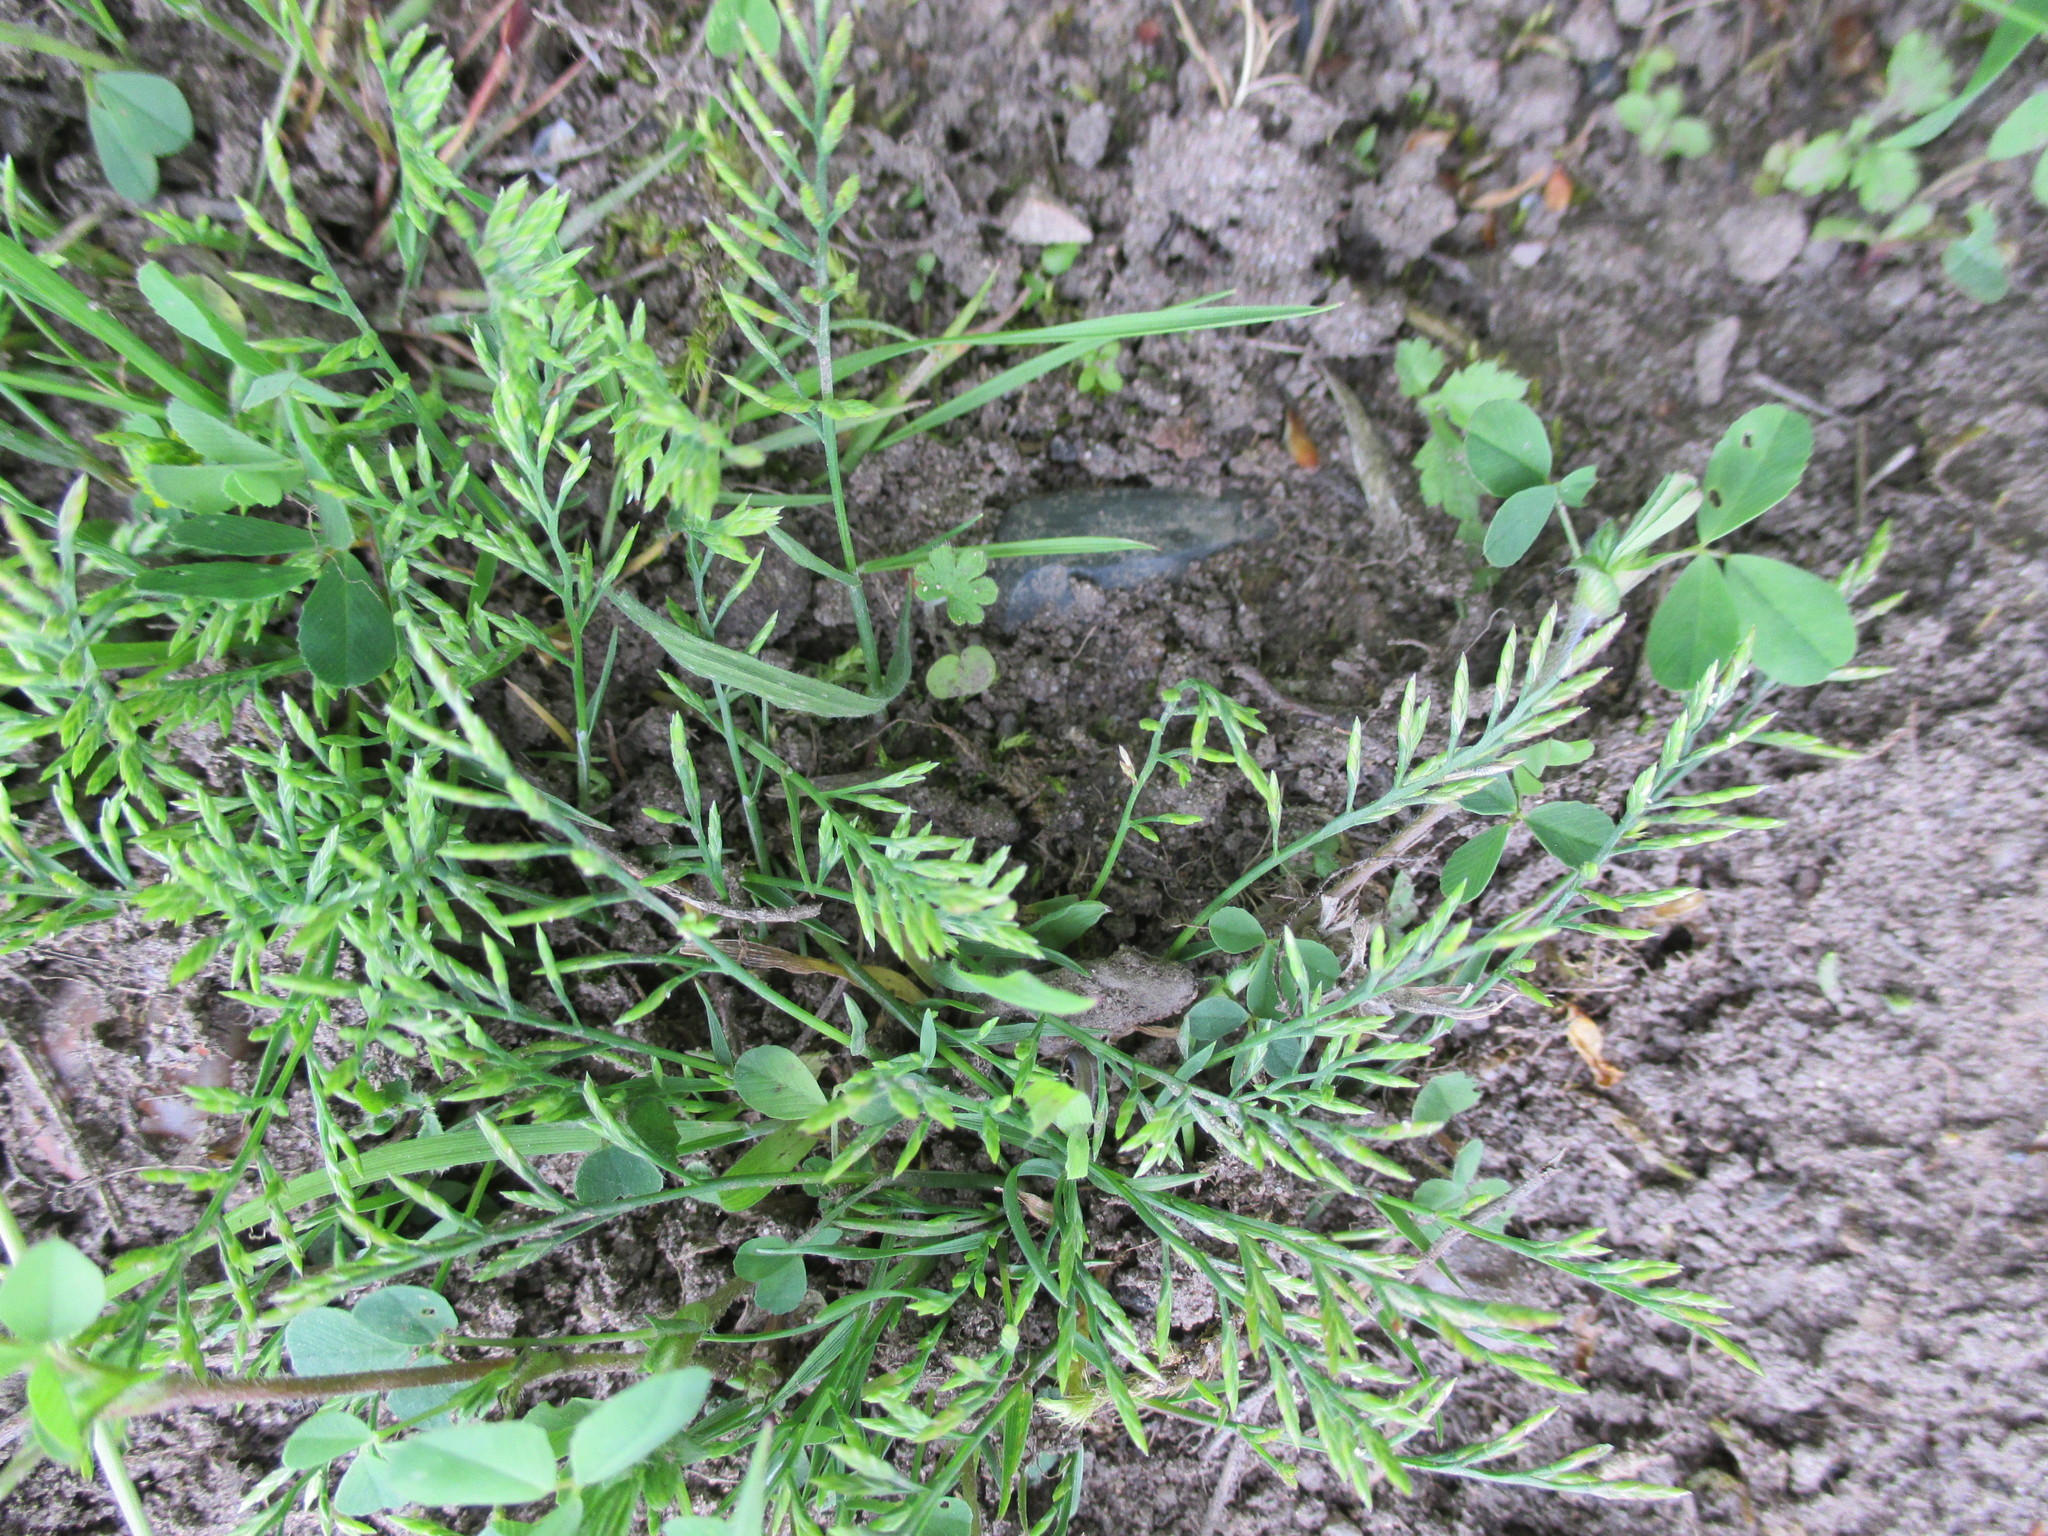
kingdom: Plantae
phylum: Tracheophyta
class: Liliopsida
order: Poales
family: Poaceae
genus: Catapodium
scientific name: Catapodium rigidum
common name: Fern-grass
